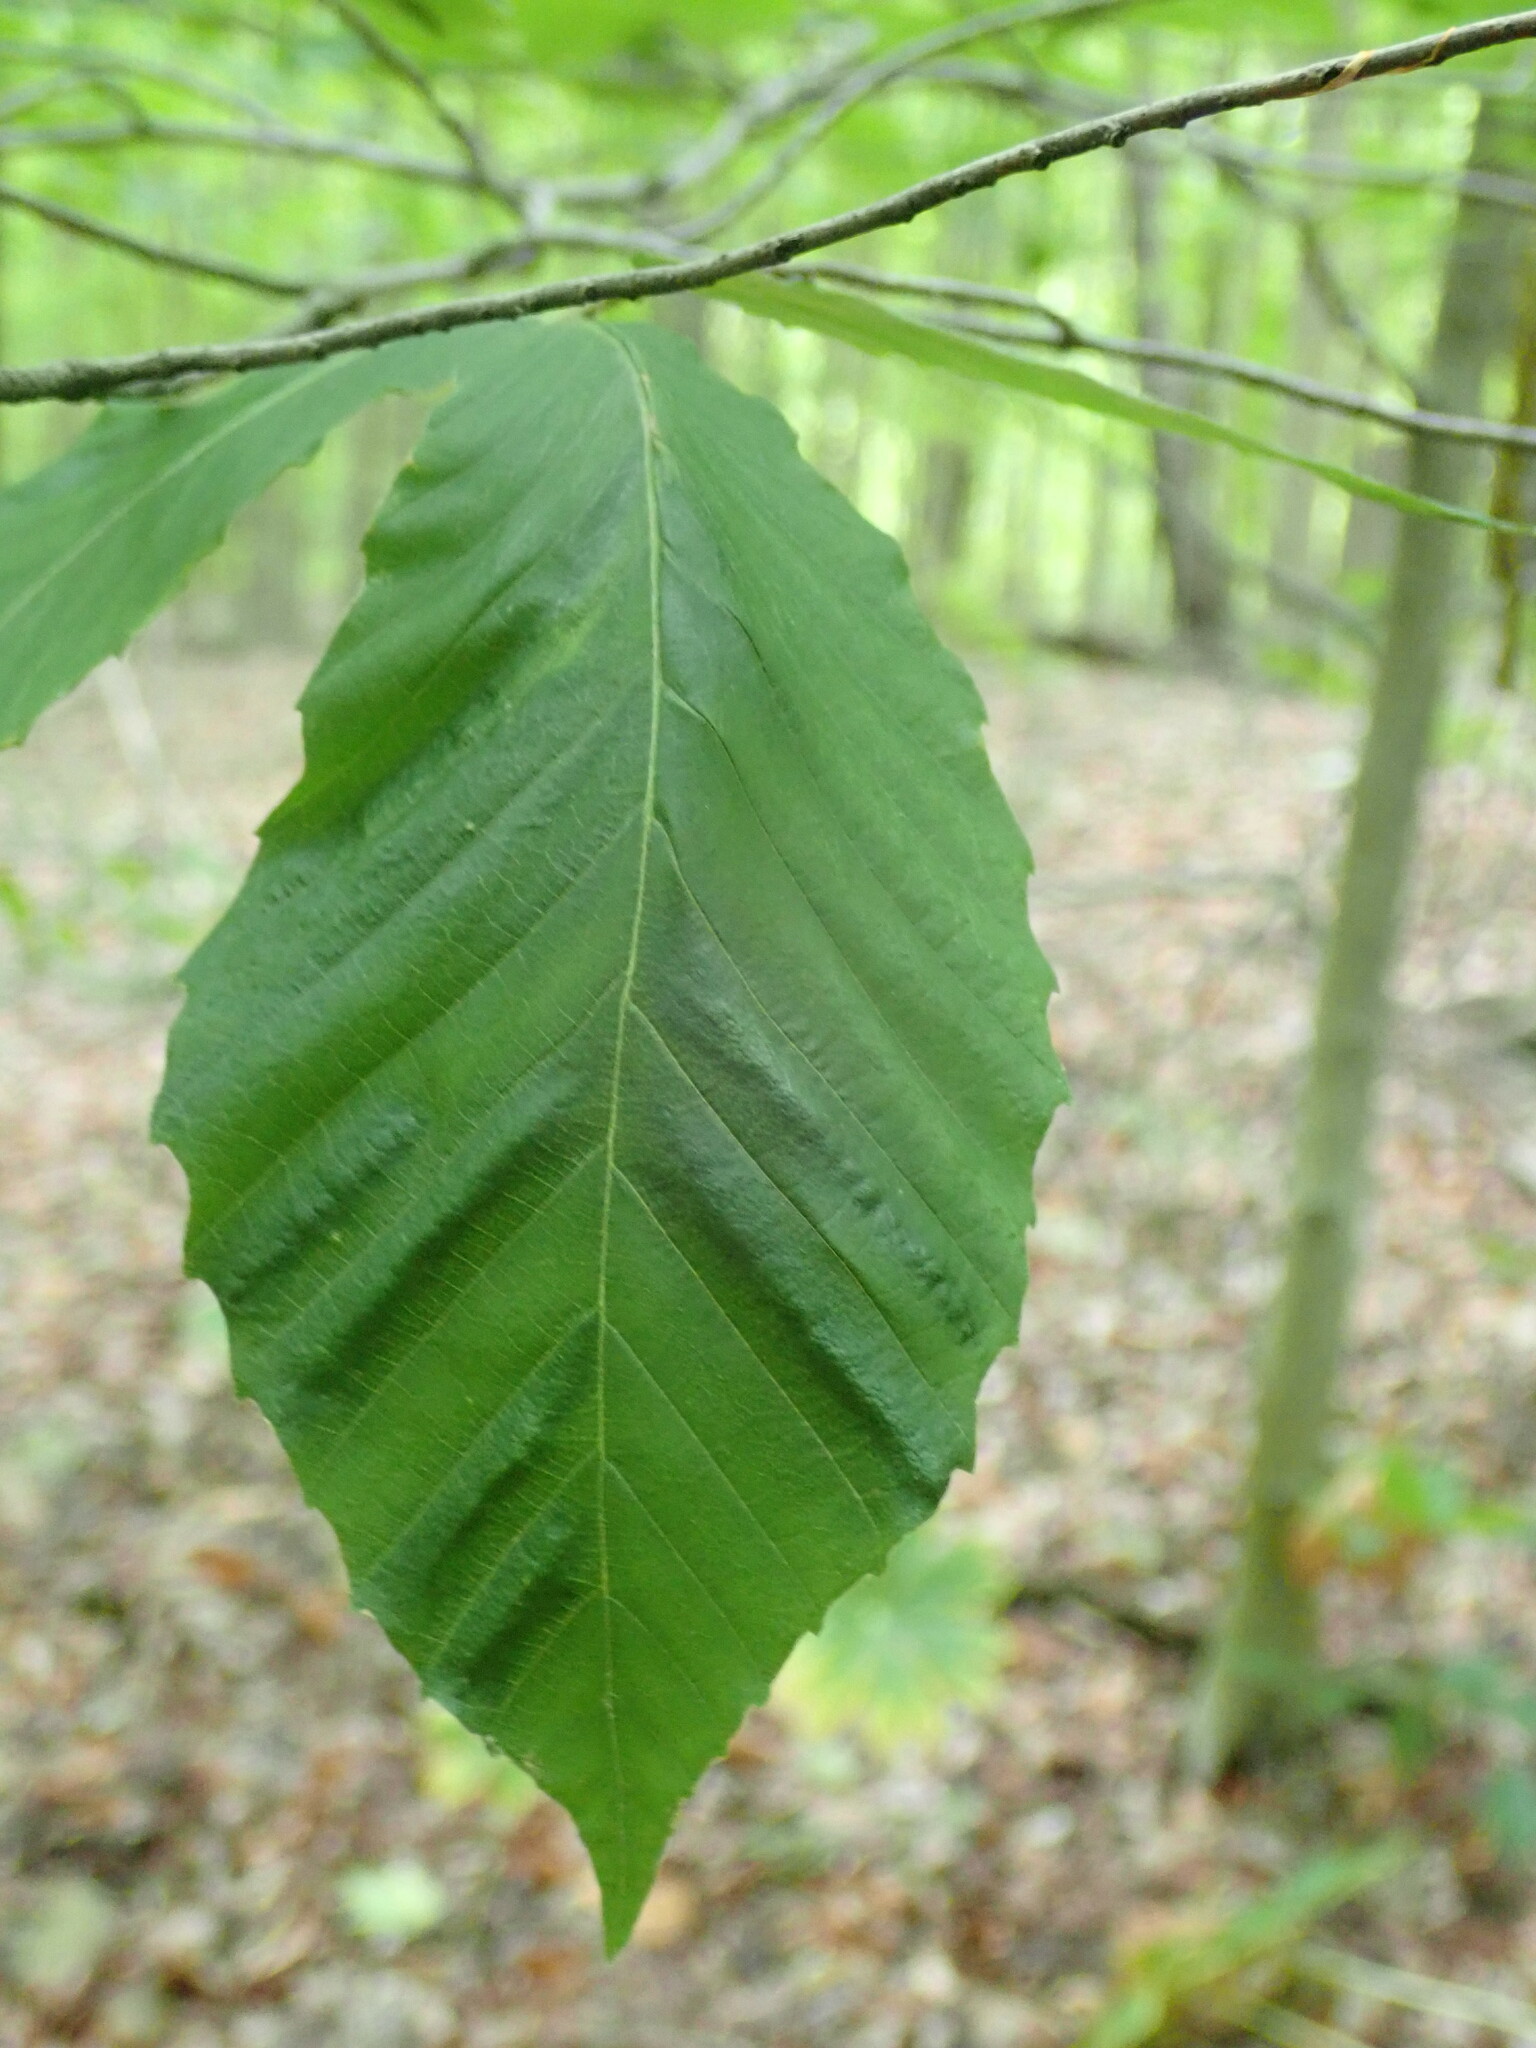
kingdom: Animalia
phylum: Nematoda
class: Chromadorea
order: Rhabditida
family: Anguinidae
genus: Litylenchus
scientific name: Litylenchus crenatae
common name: Beech leaf disease
